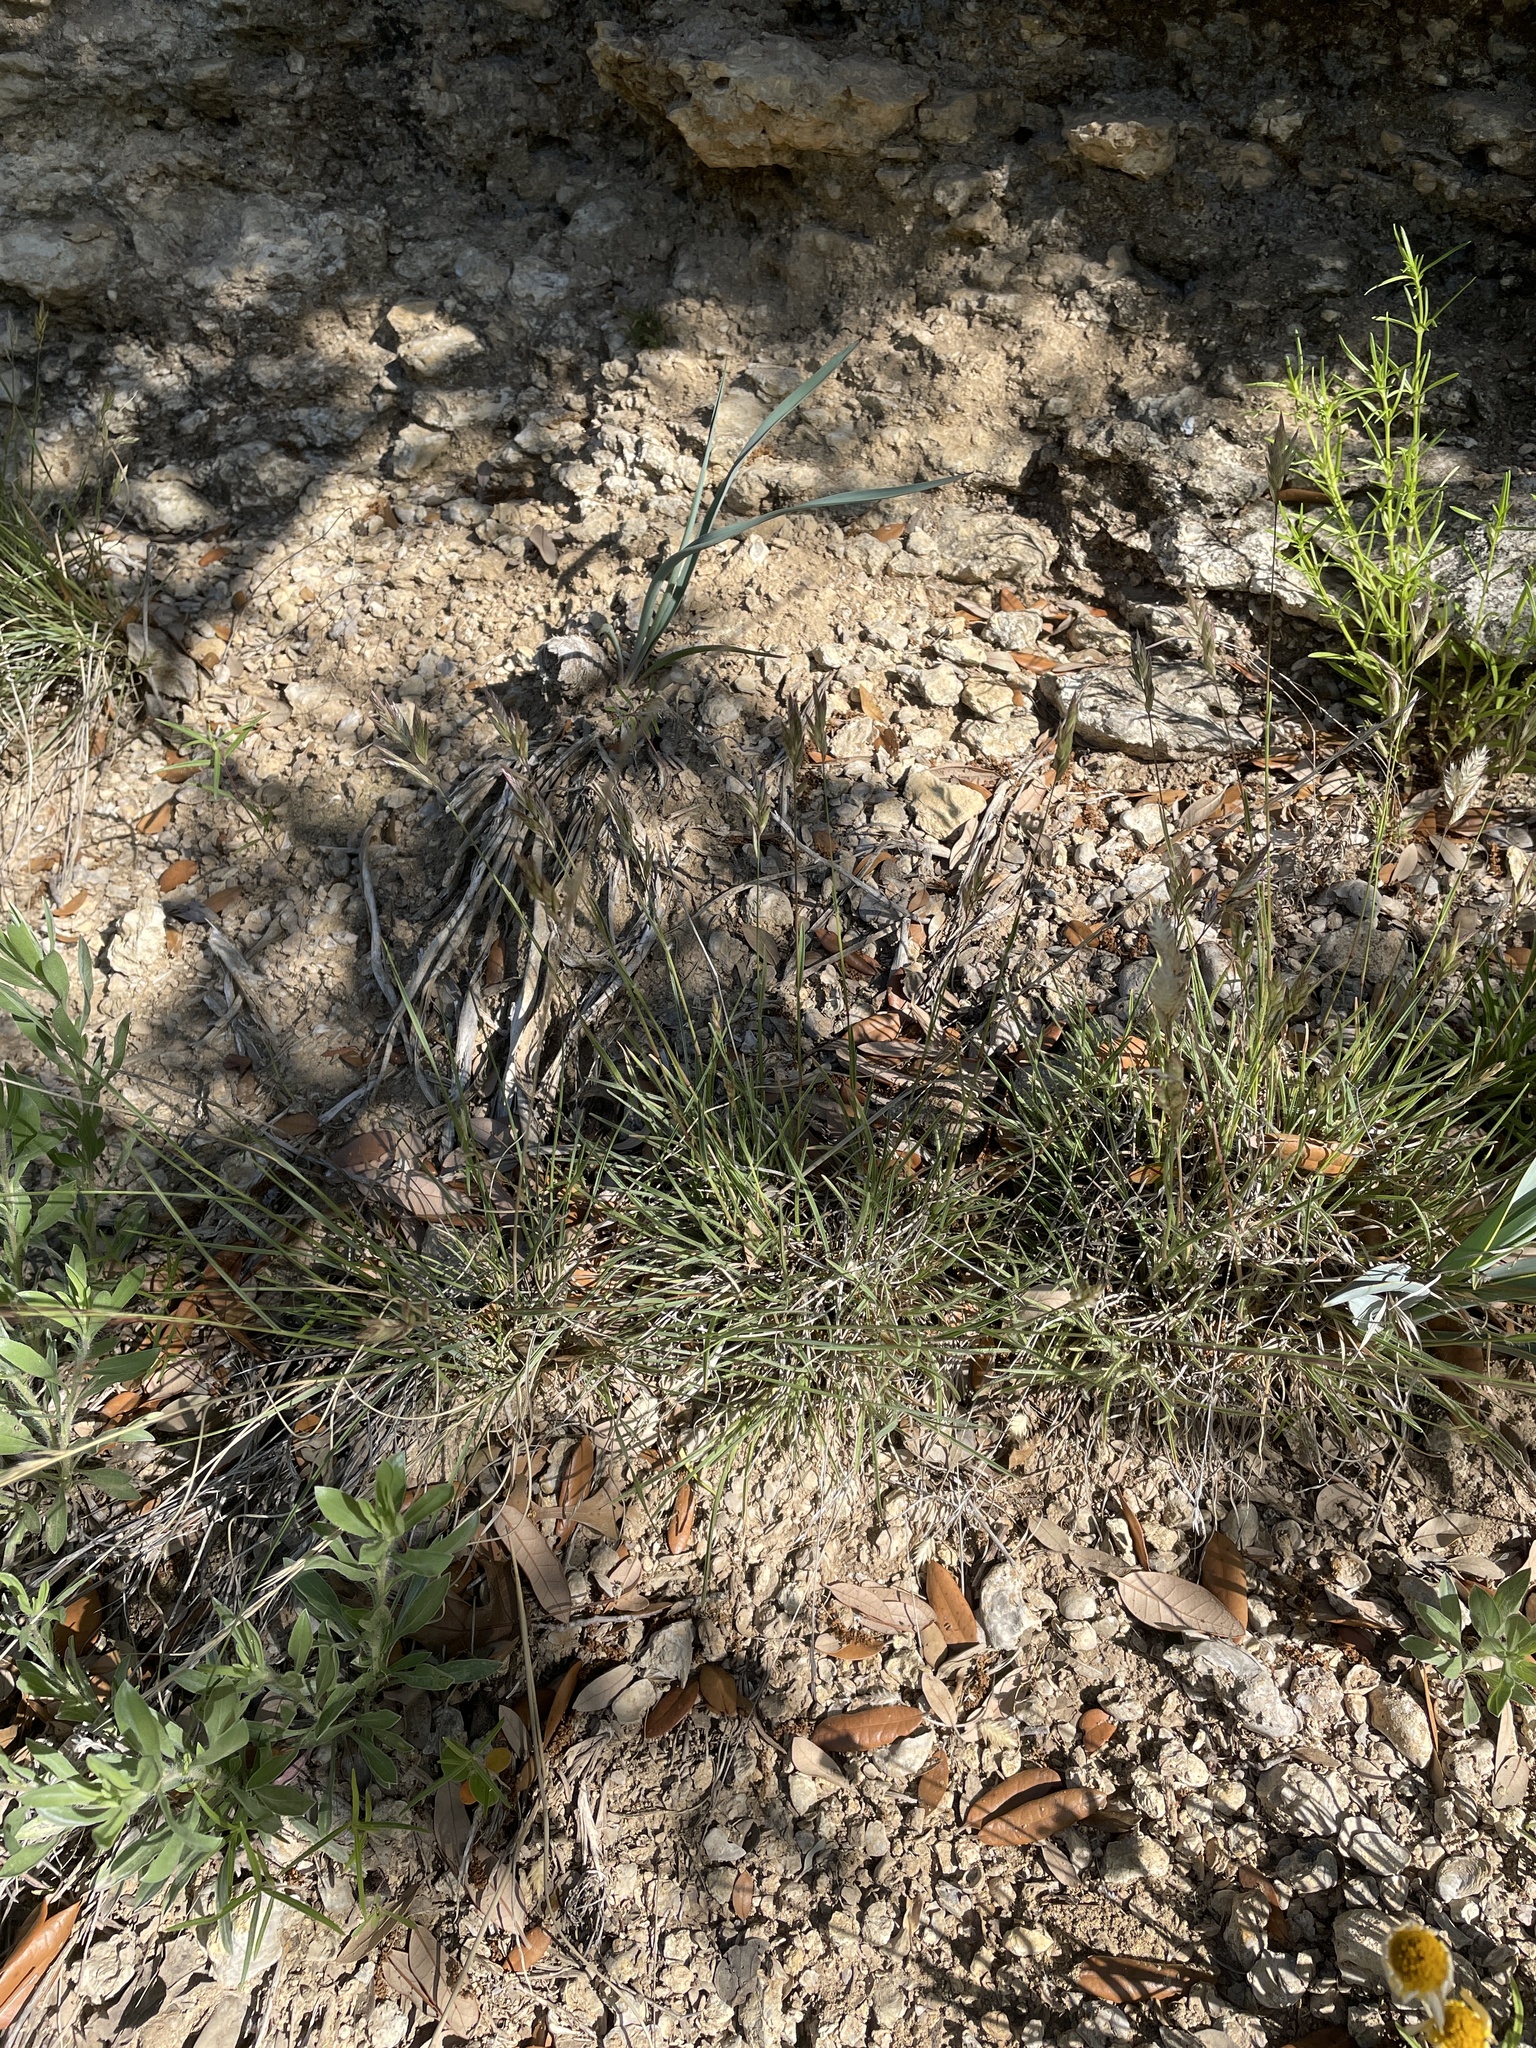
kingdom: Plantae
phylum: Tracheophyta
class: Liliopsida
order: Poales
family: Poaceae
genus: Erioneuron
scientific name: Erioneuron pilosum
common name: Hairy woolly grass
